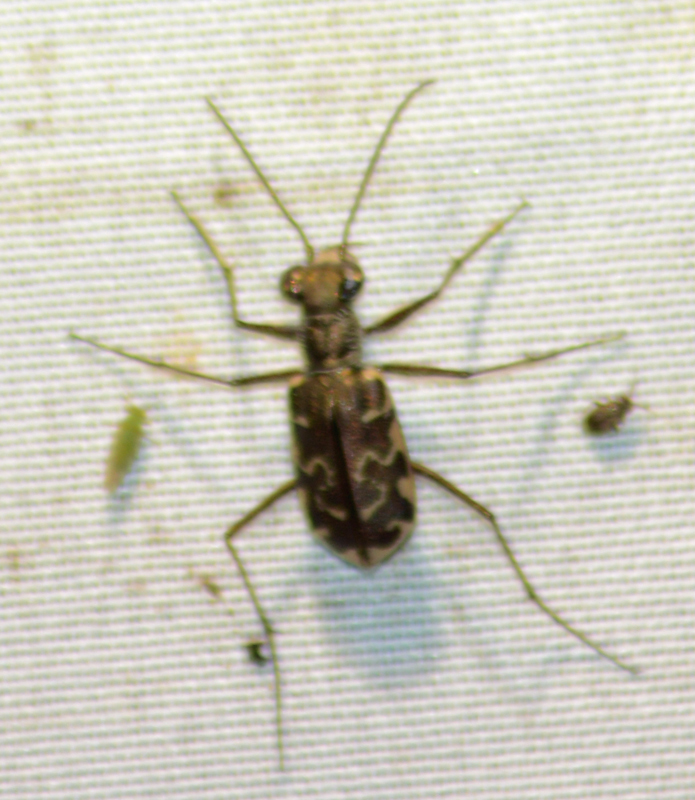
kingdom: Animalia
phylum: Arthropoda
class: Insecta
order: Coleoptera
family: Carabidae
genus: Cicindela
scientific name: Cicindela trifasciata
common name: Mudflat tiger beetle
